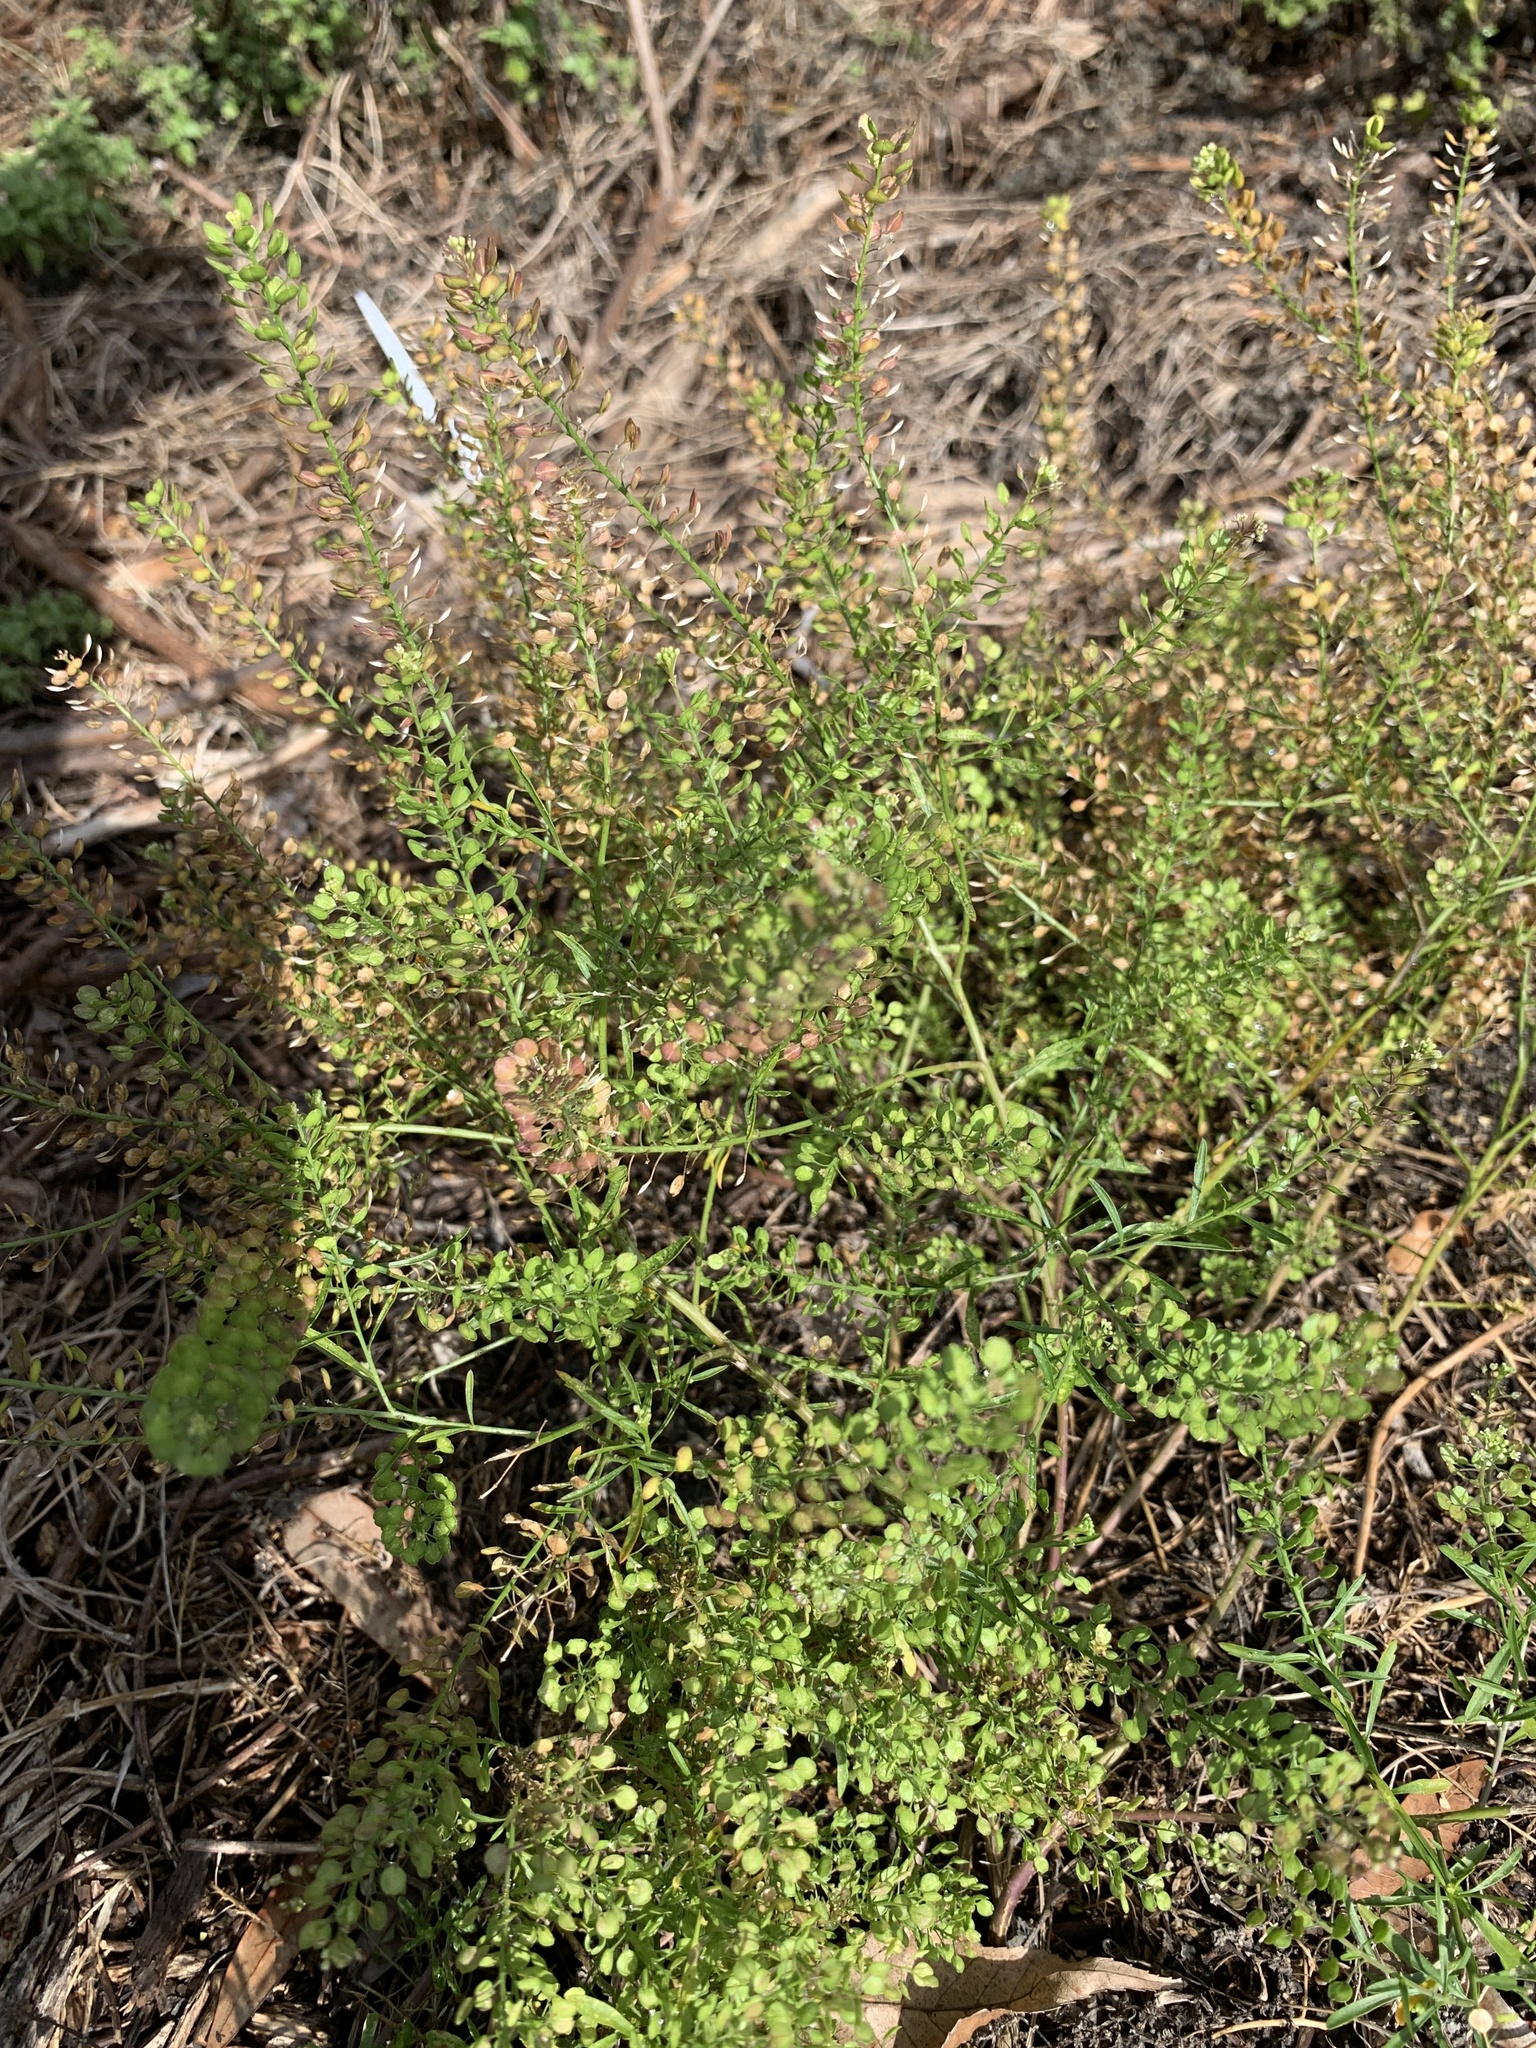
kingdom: Plantae
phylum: Tracheophyta
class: Magnoliopsida
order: Brassicales
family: Brassicaceae
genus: Lepidium
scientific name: Lepidium virginicum
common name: Least pepperwort
